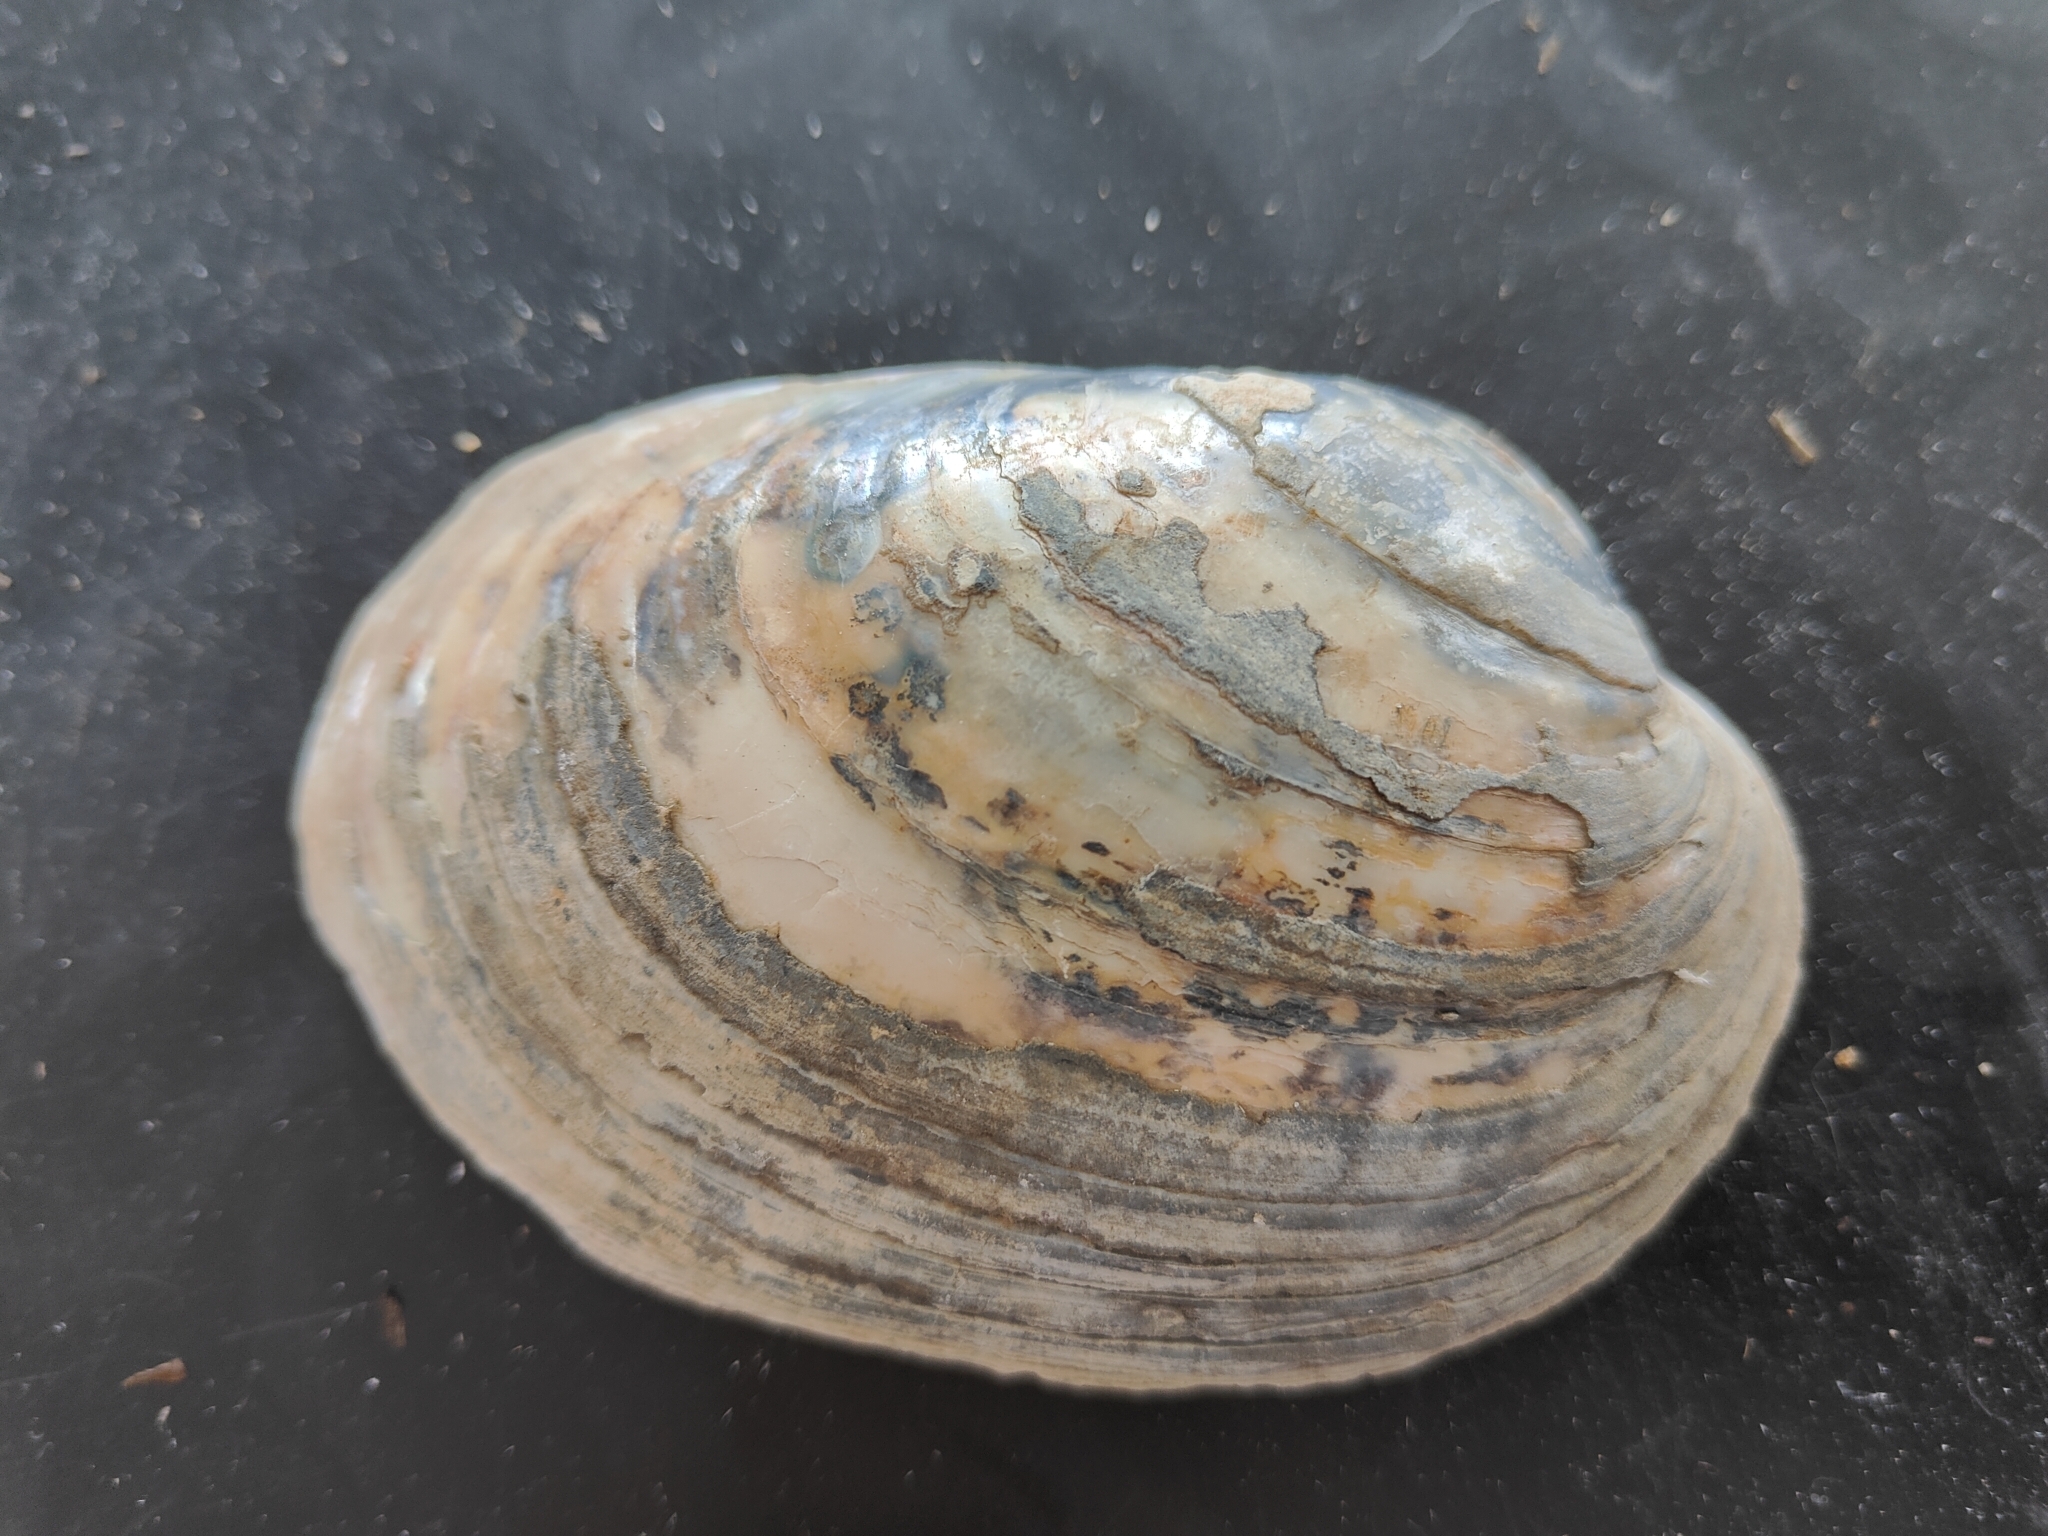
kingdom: Animalia
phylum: Mollusca
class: Bivalvia
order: Unionida
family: Unionidae
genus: Lampsilis
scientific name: Lampsilis cardium
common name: Plain pocketbook
